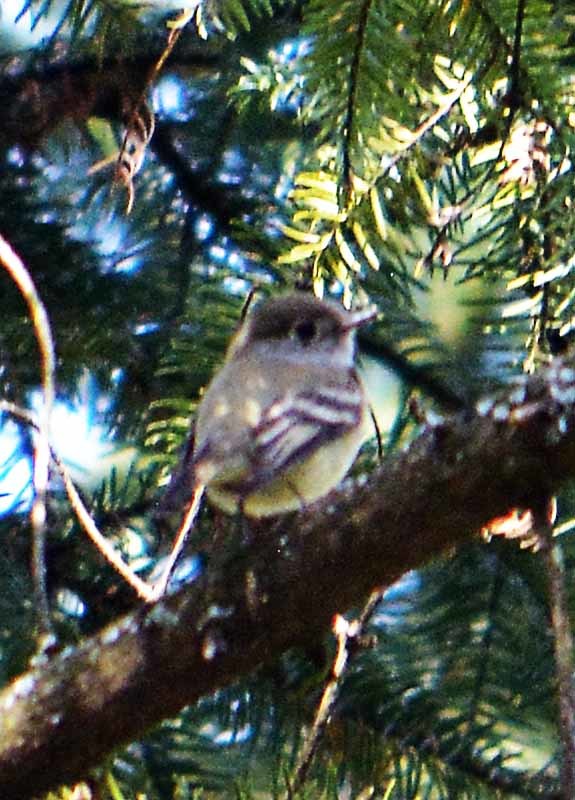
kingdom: Animalia
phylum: Chordata
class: Aves
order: Passeriformes
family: Regulidae
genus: Regulus
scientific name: Regulus calendula
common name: Ruby-crowned kinglet
